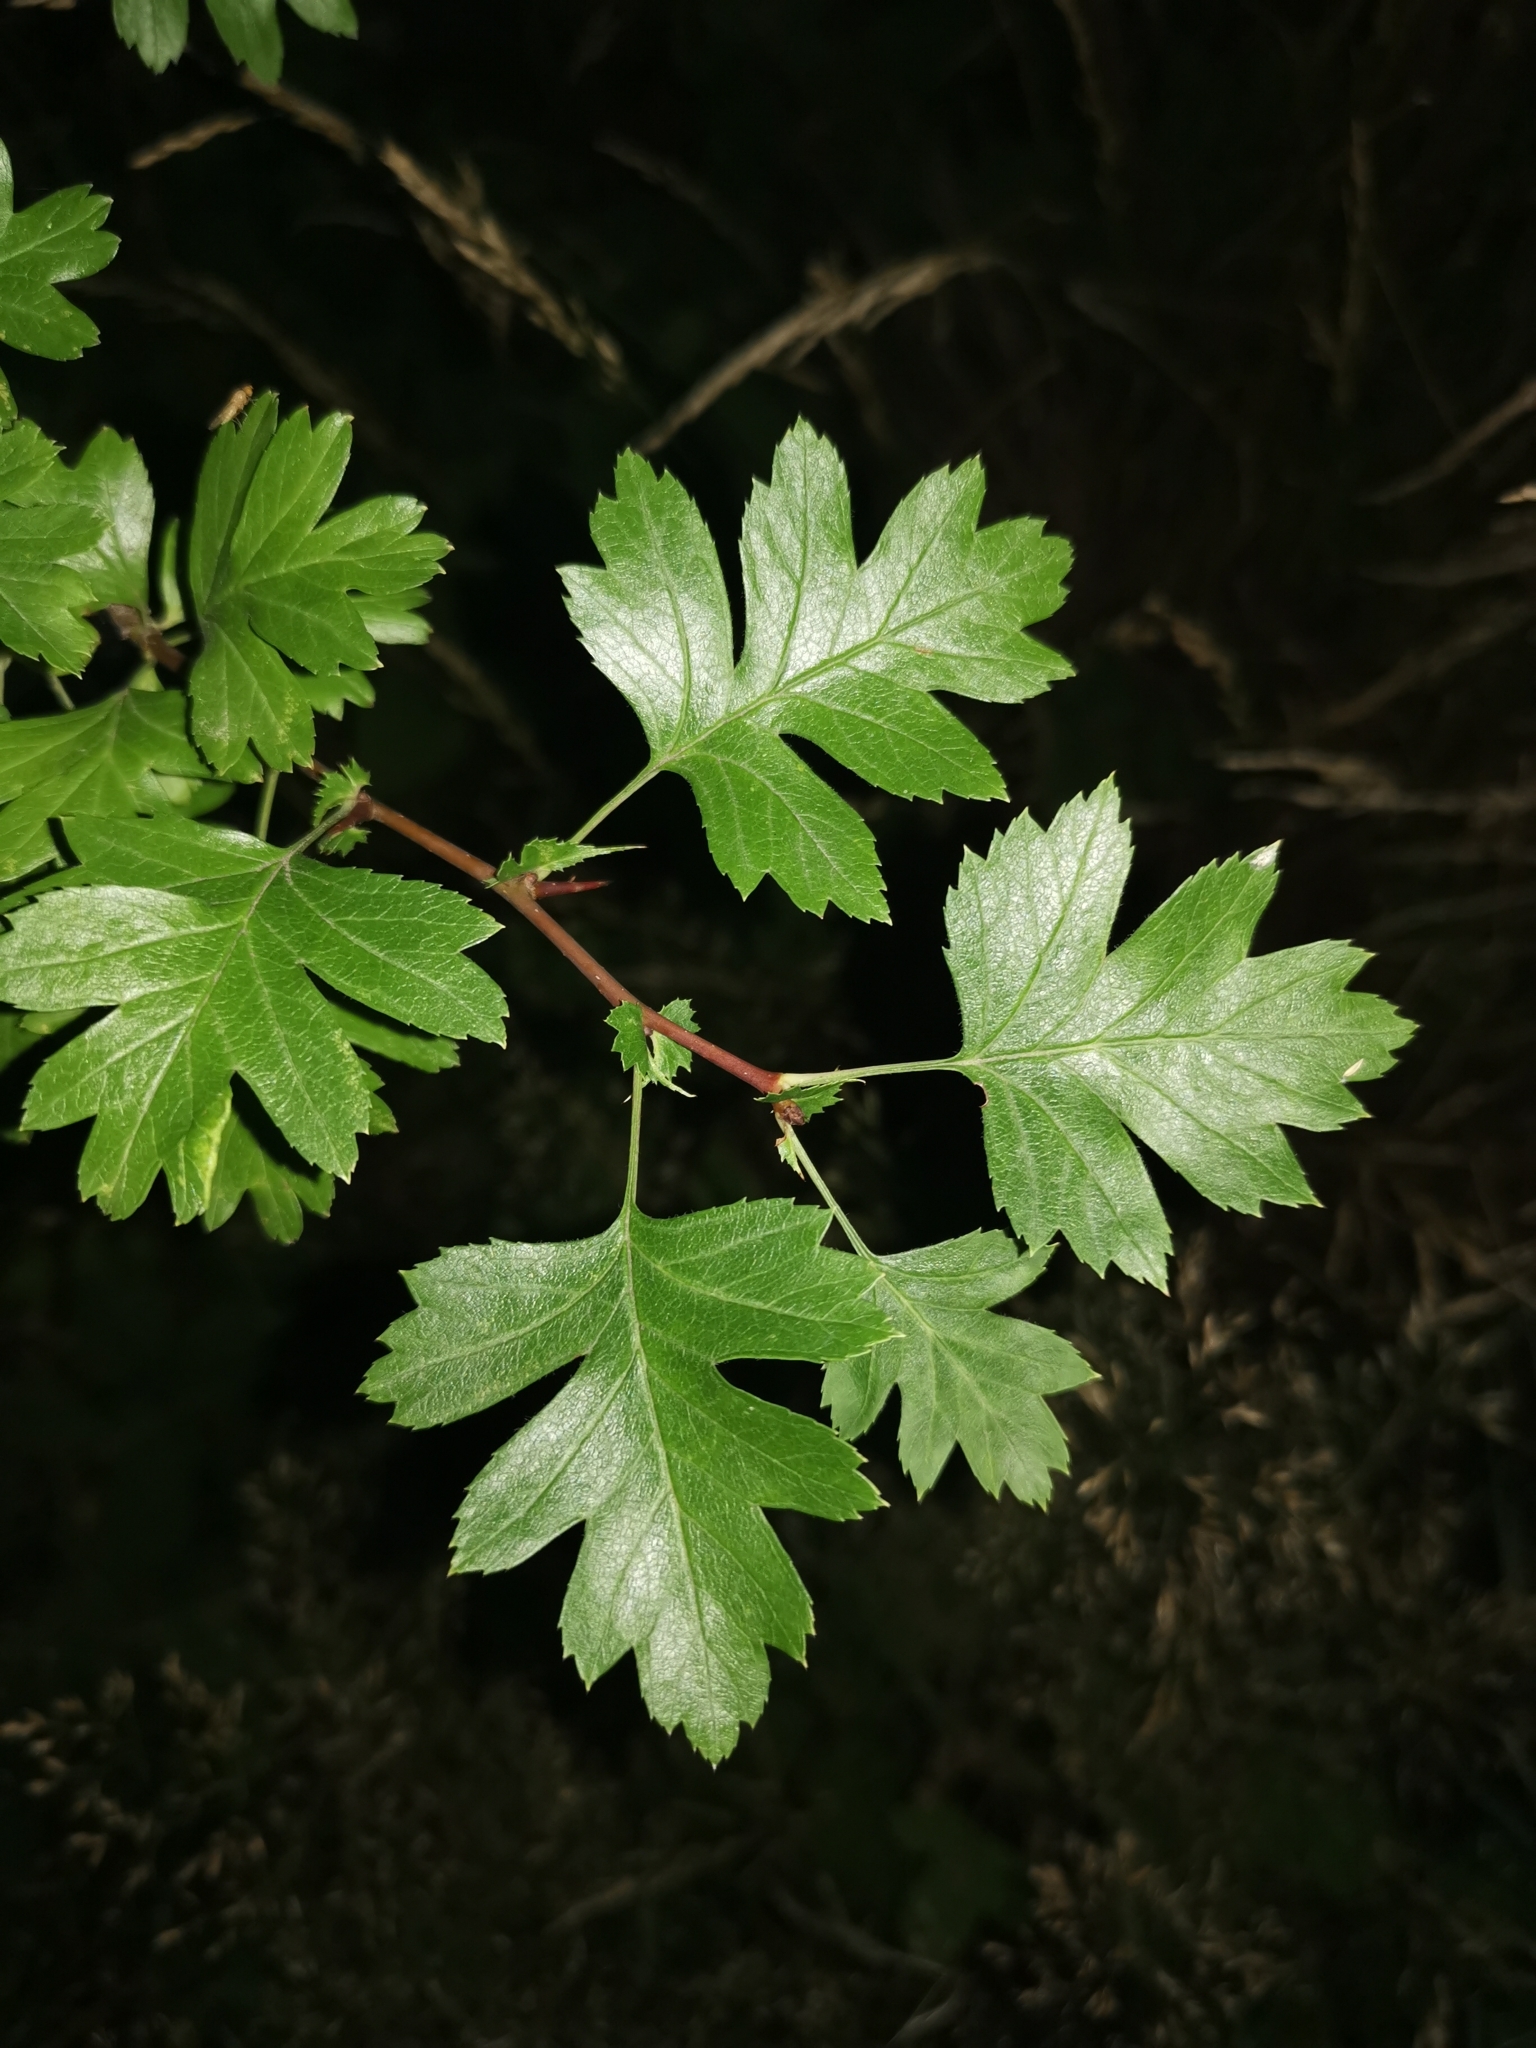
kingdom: Plantae
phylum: Tracheophyta
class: Magnoliopsida
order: Rosales
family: Rosaceae
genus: Crataegus
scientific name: Crataegus monogyna
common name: Hawthorn
